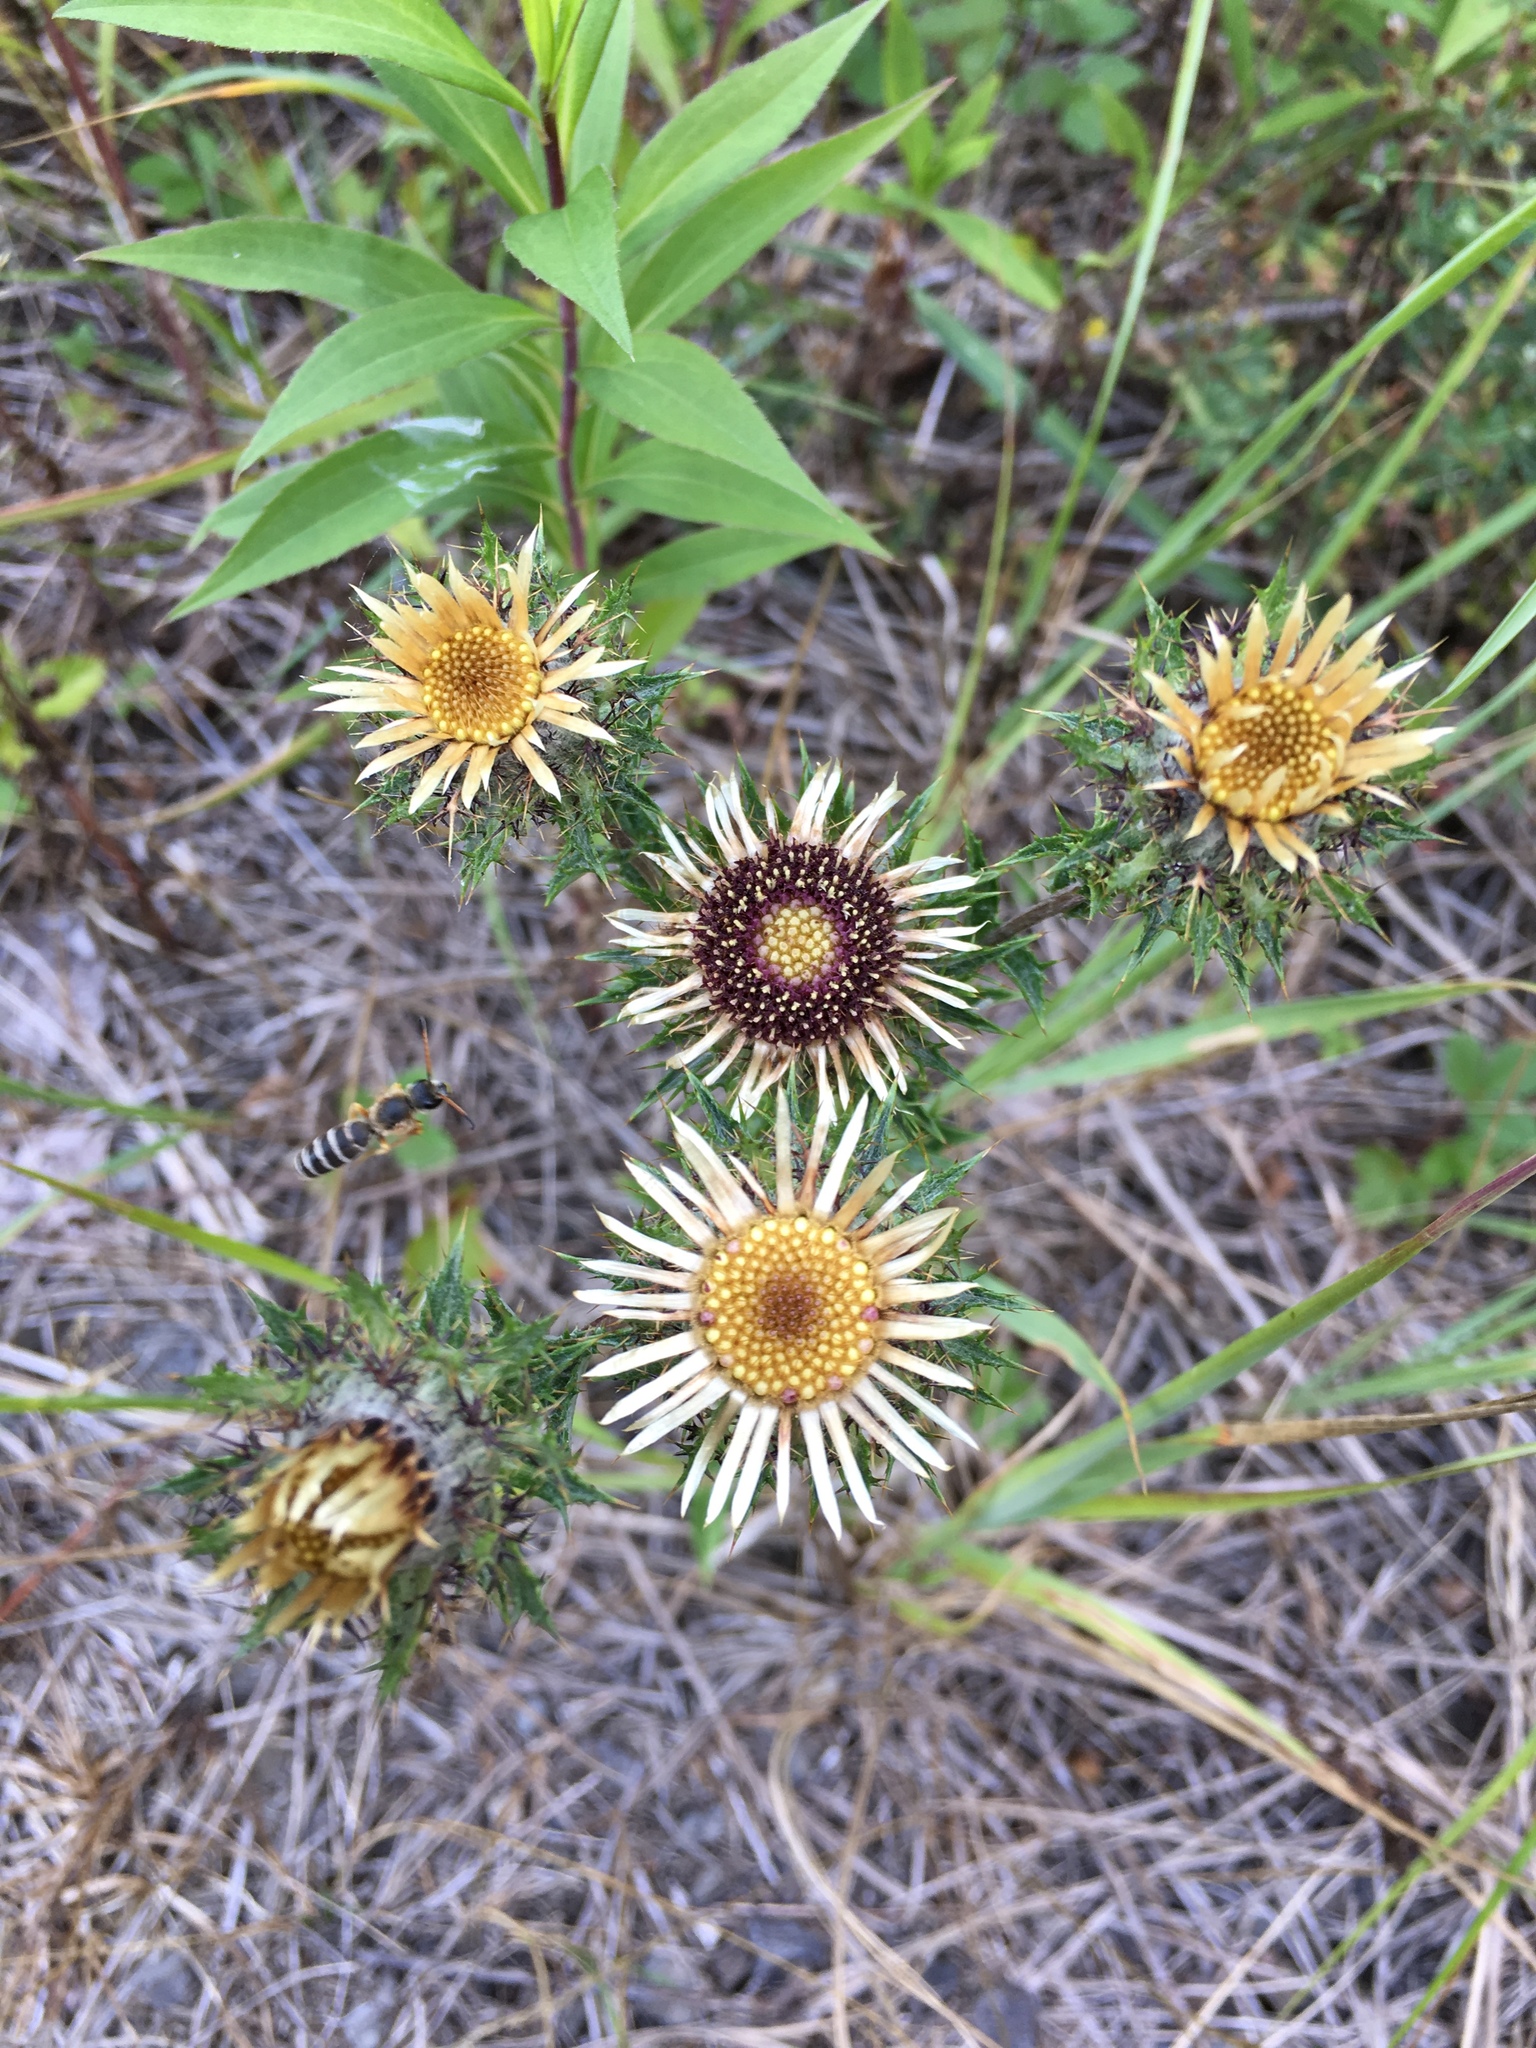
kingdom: Plantae
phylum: Tracheophyta
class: Magnoliopsida
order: Asterales
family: Asteraceae
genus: Carlina
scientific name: Carlina vulgaris
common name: Carline thistle
